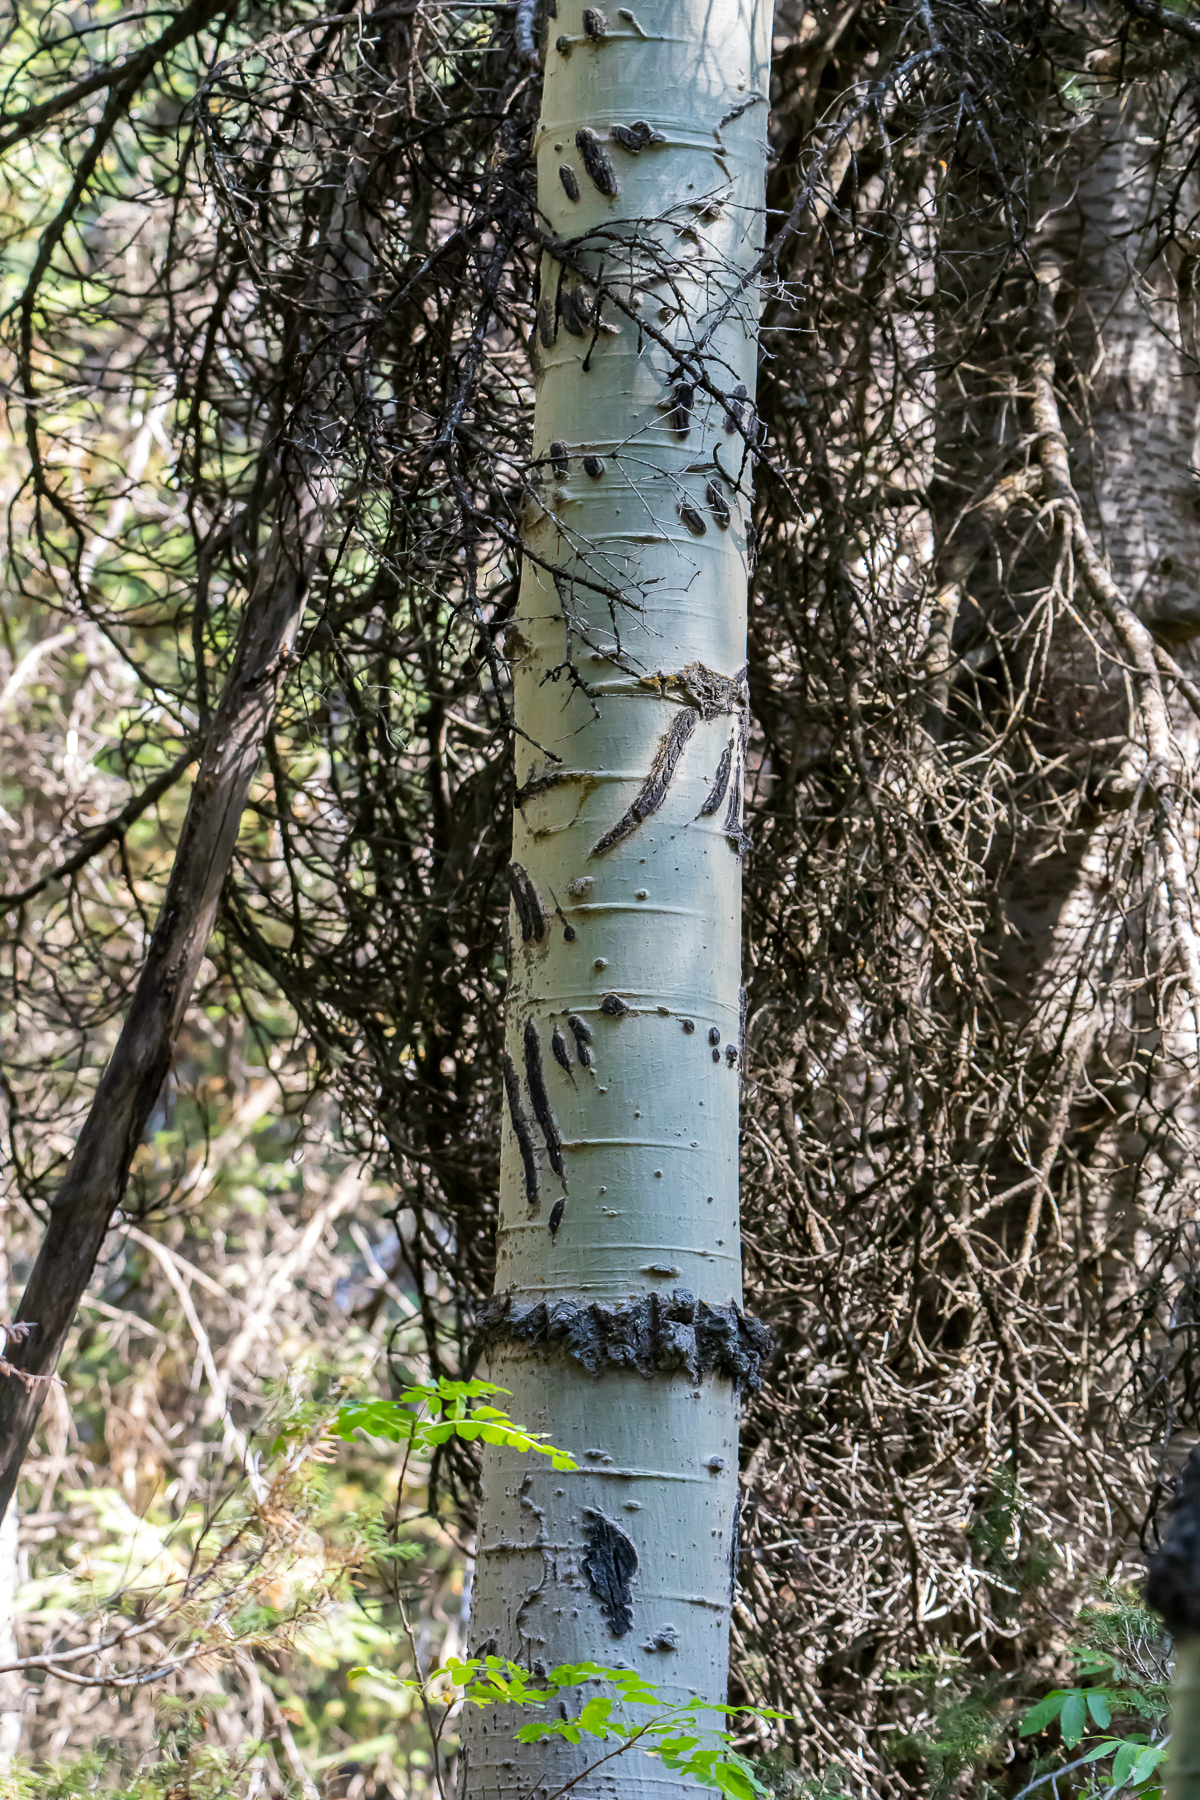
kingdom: Animalia
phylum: Chordata
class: Mammalia
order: Carnivora
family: Ursidae
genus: Ursus
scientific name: Ursus americanus
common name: American black bear
